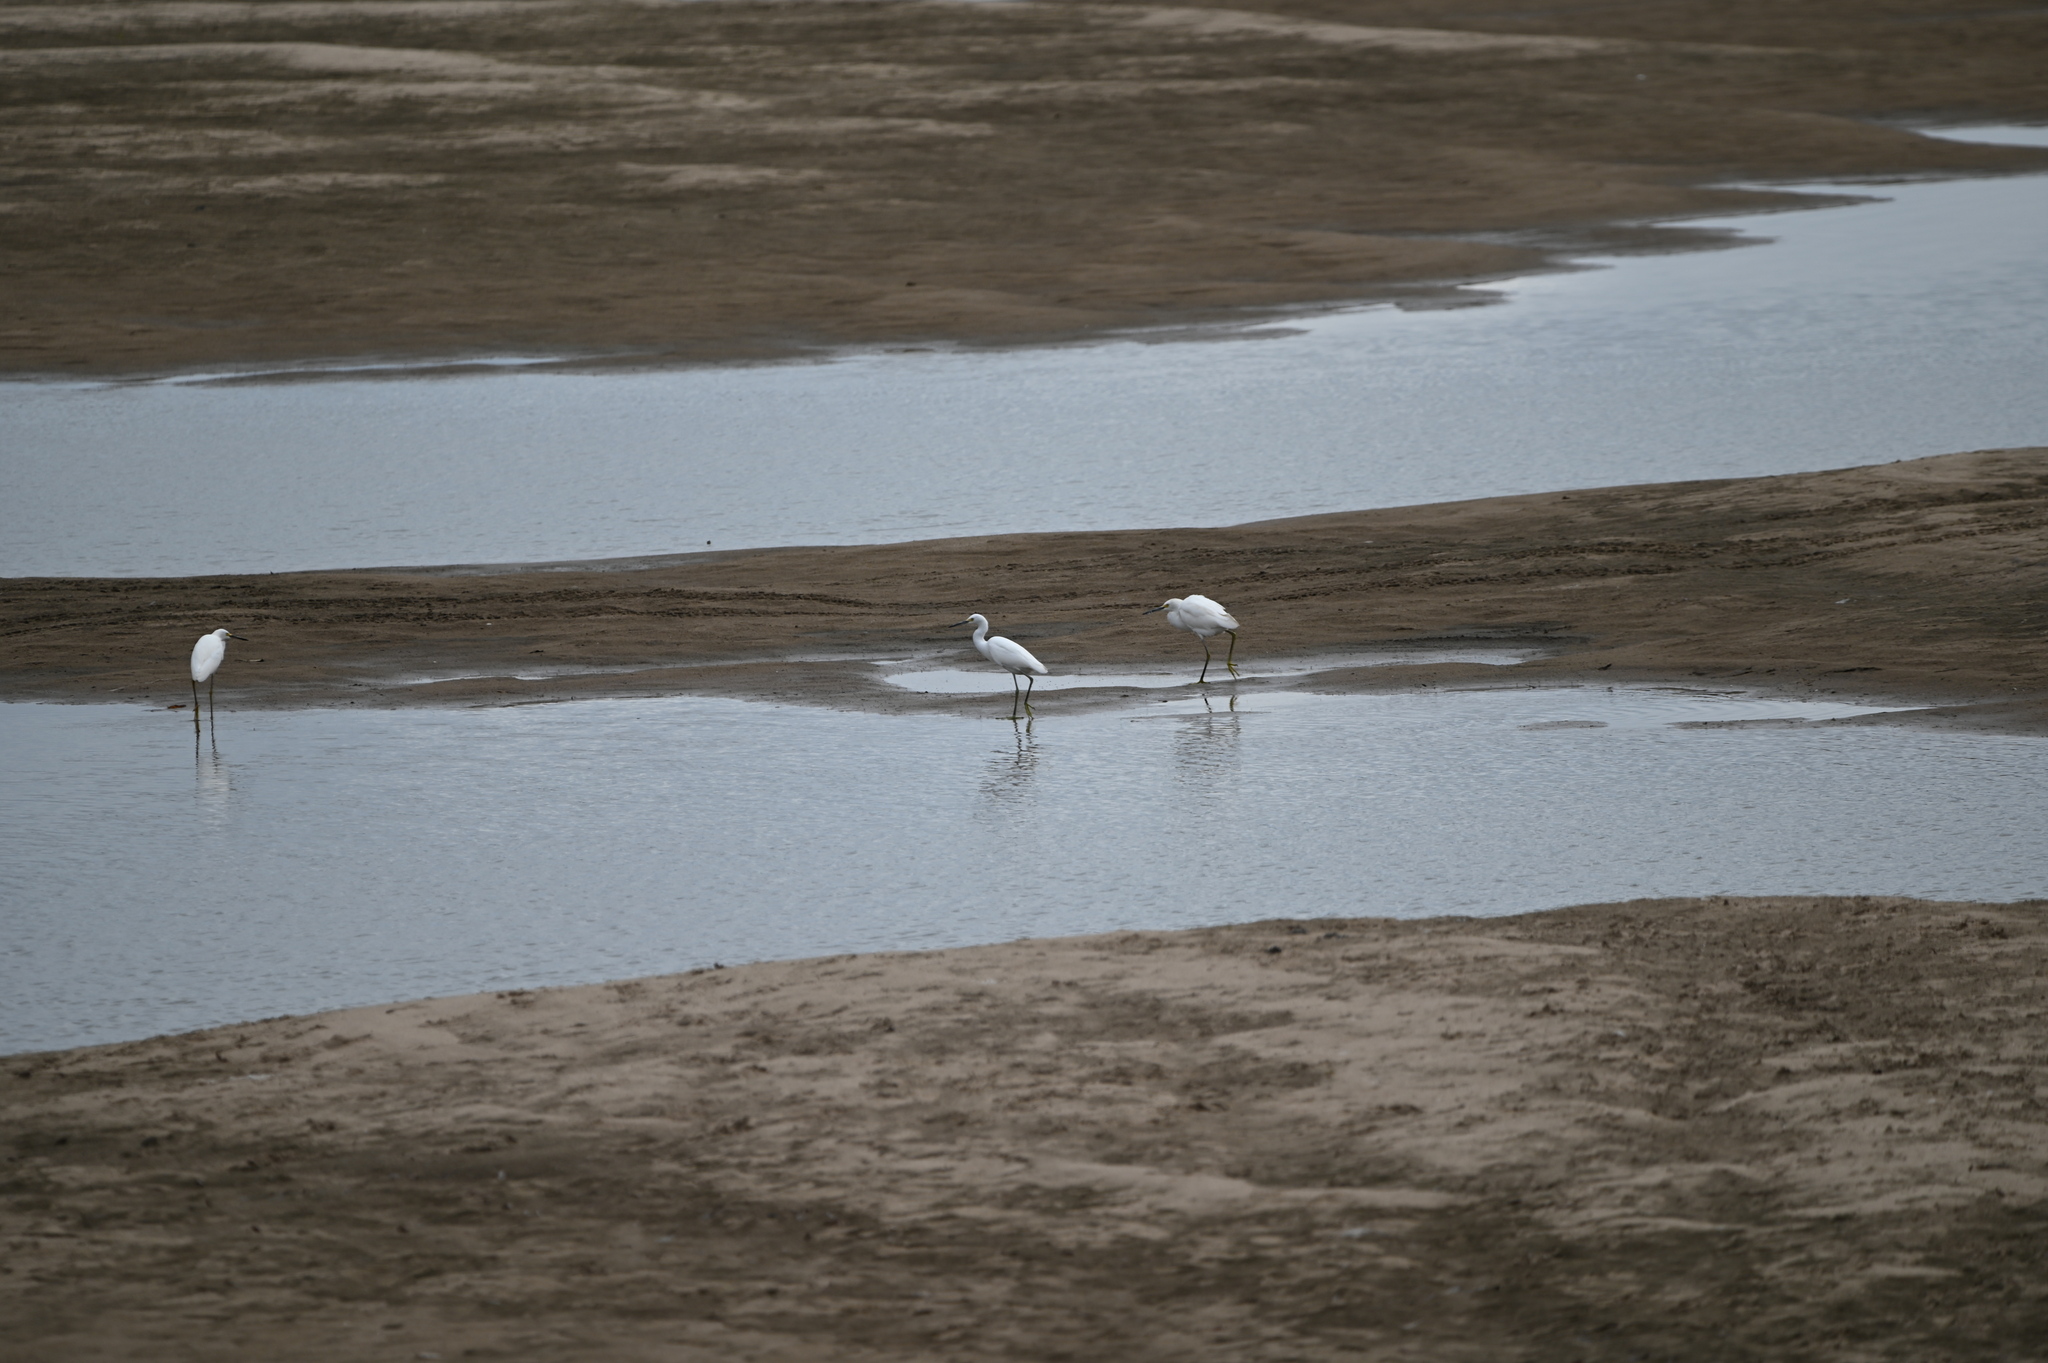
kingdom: Animalia
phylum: Chordata
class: Aves
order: Pelecaniformes
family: Ardeidae
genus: Egretta
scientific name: Egretta thula
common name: Snowy egret
